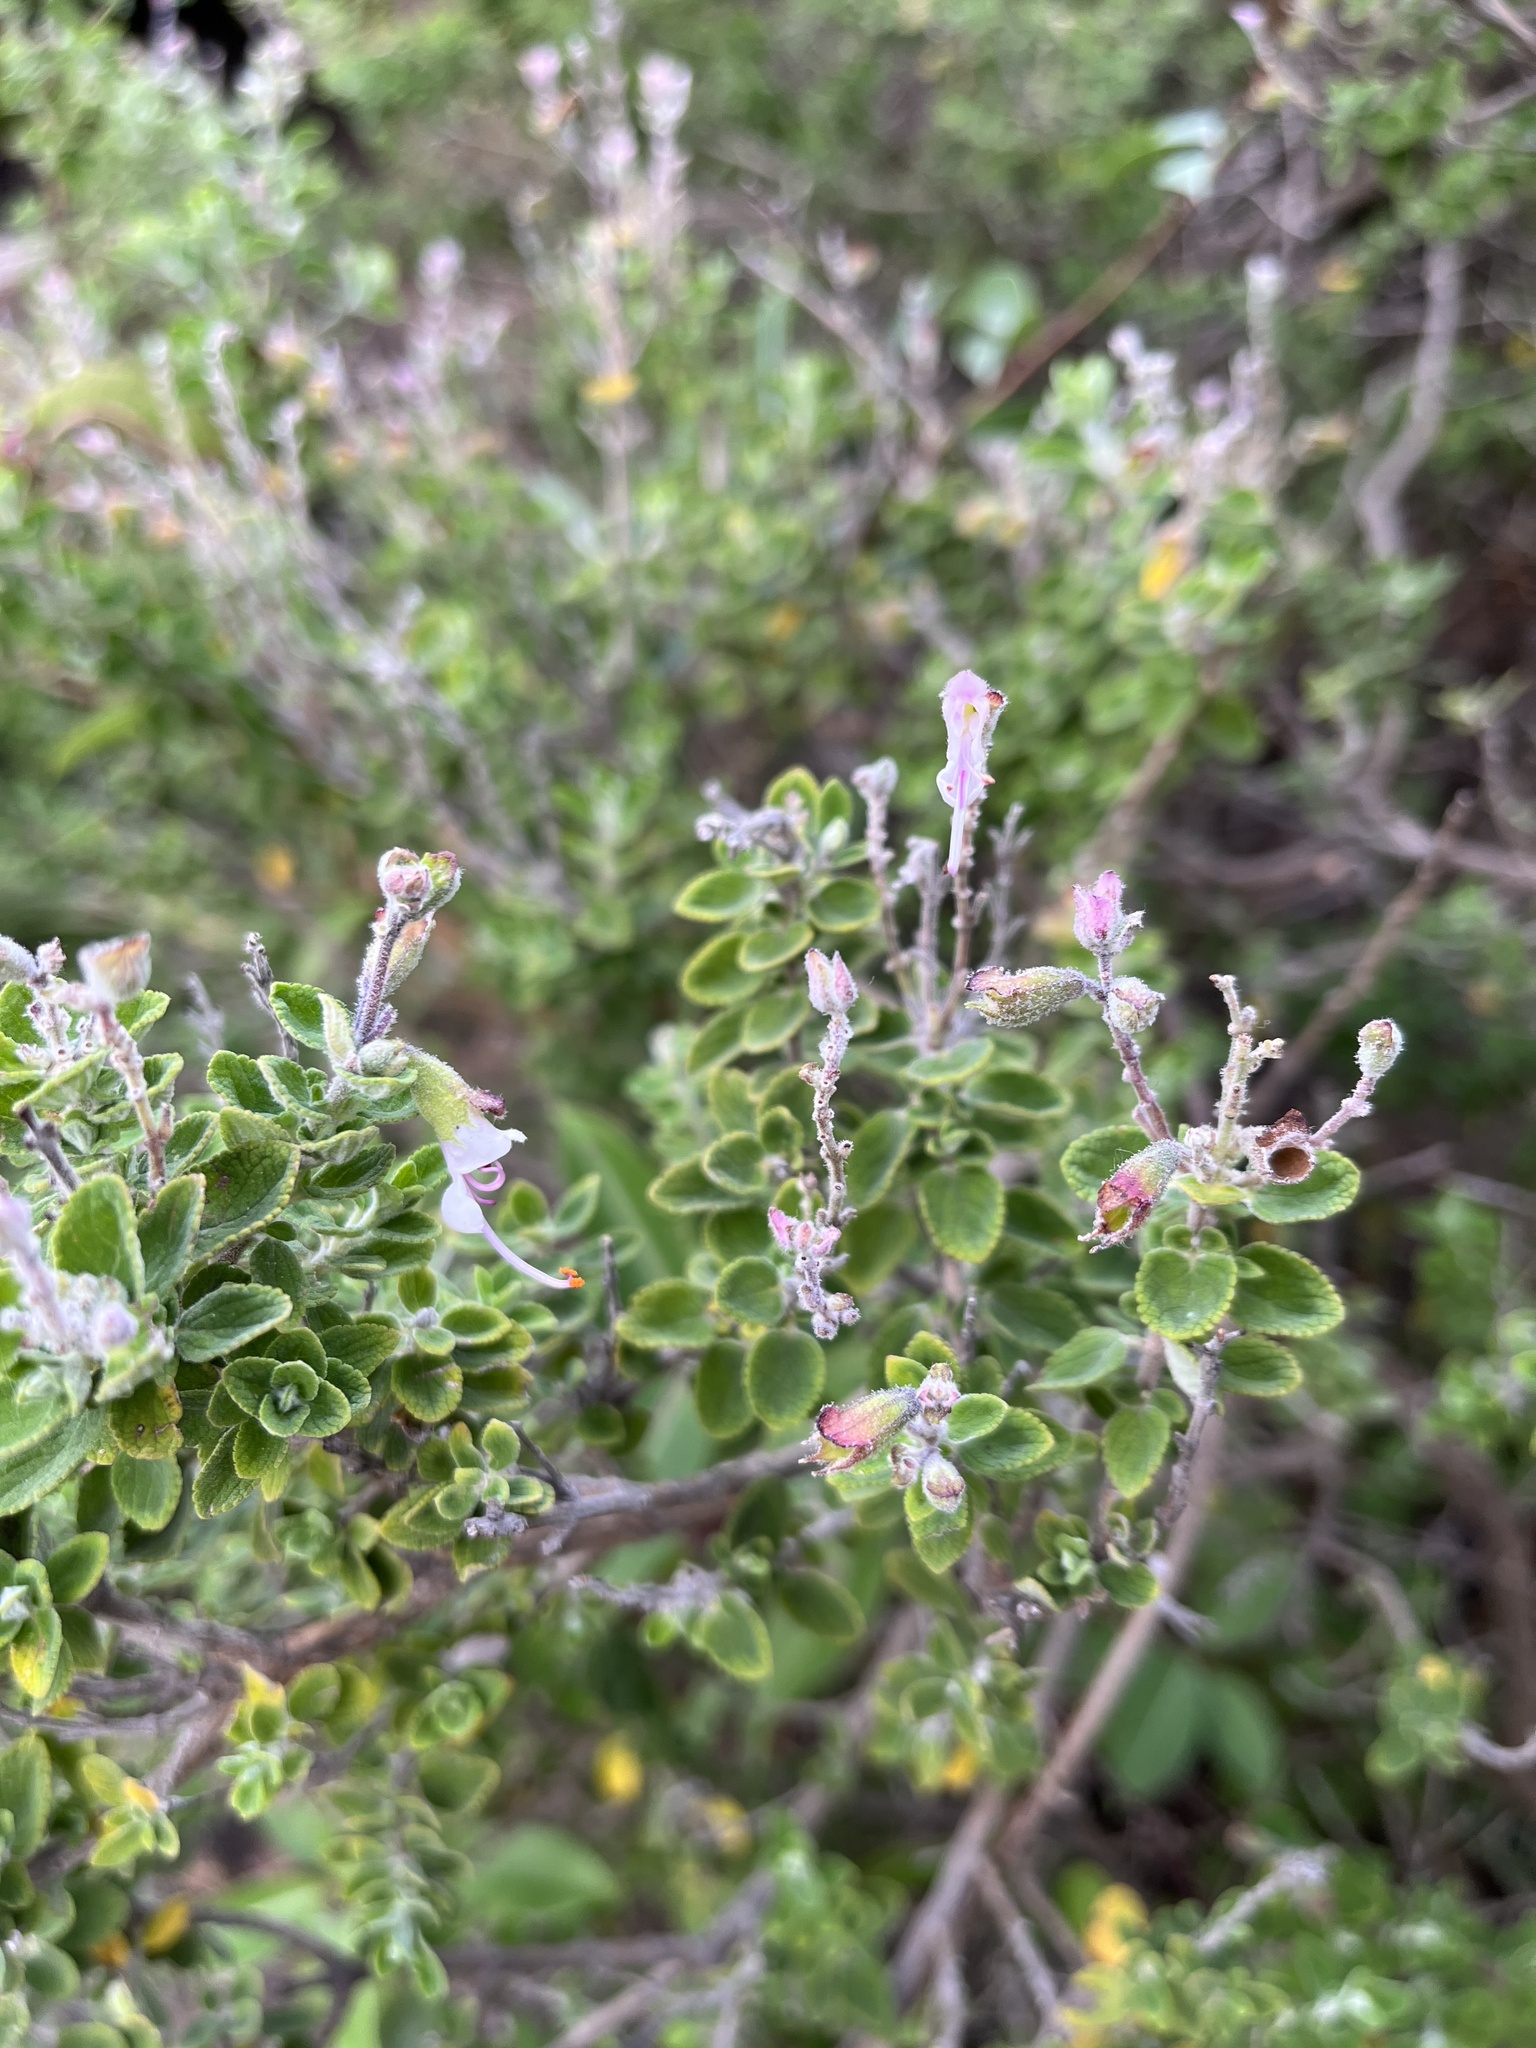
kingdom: Plantae
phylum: Tracheophyta
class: Magnoliopsida
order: Lamiales
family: Lamiaceae
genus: Syncolostemon
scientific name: Syncolostemon parvifolius
